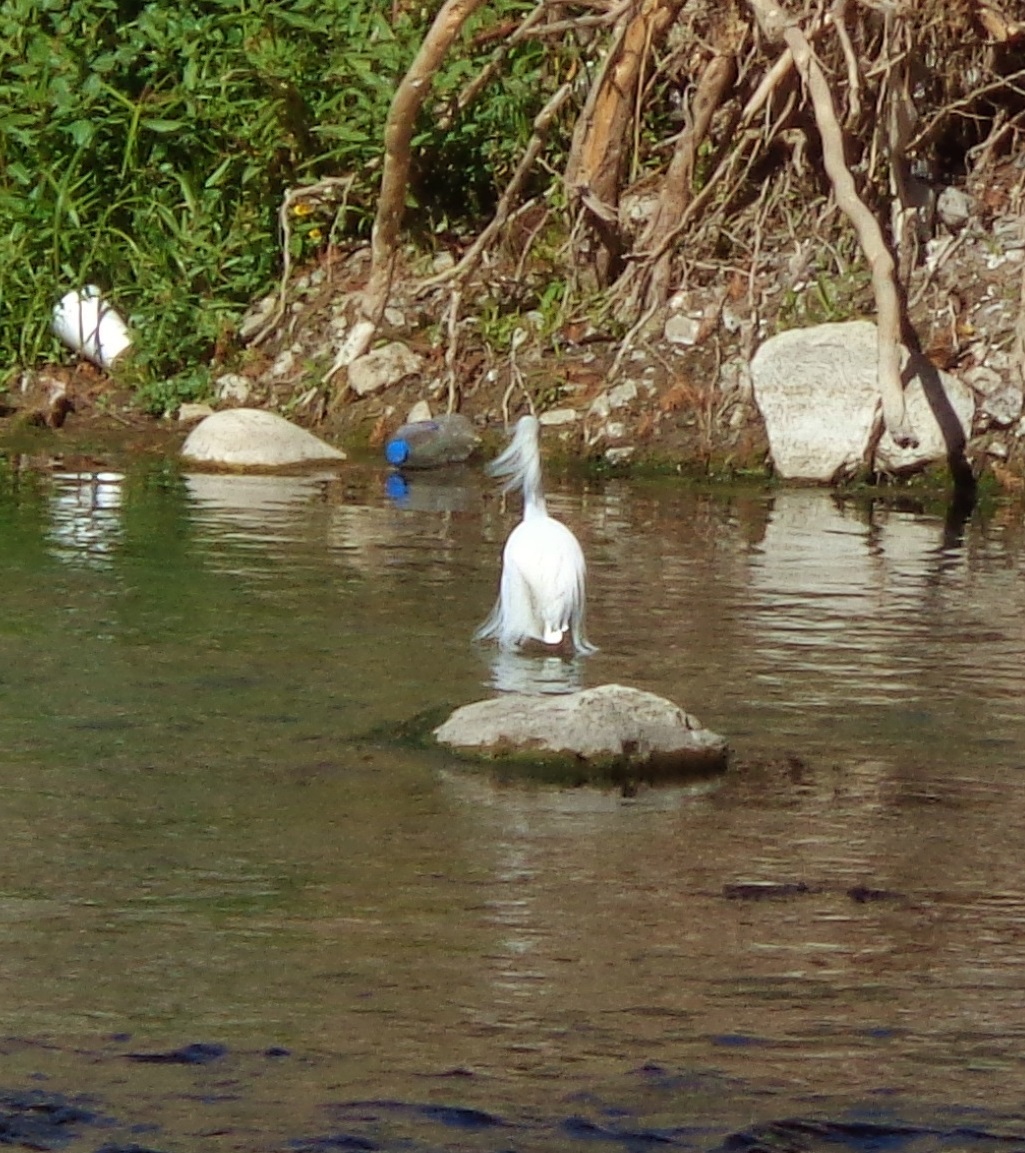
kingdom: Animalia
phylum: Chordata
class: Aves
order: Pelecaniformes
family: Ardeidae
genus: Egretta
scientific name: Egretta thula
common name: Snowy egret
